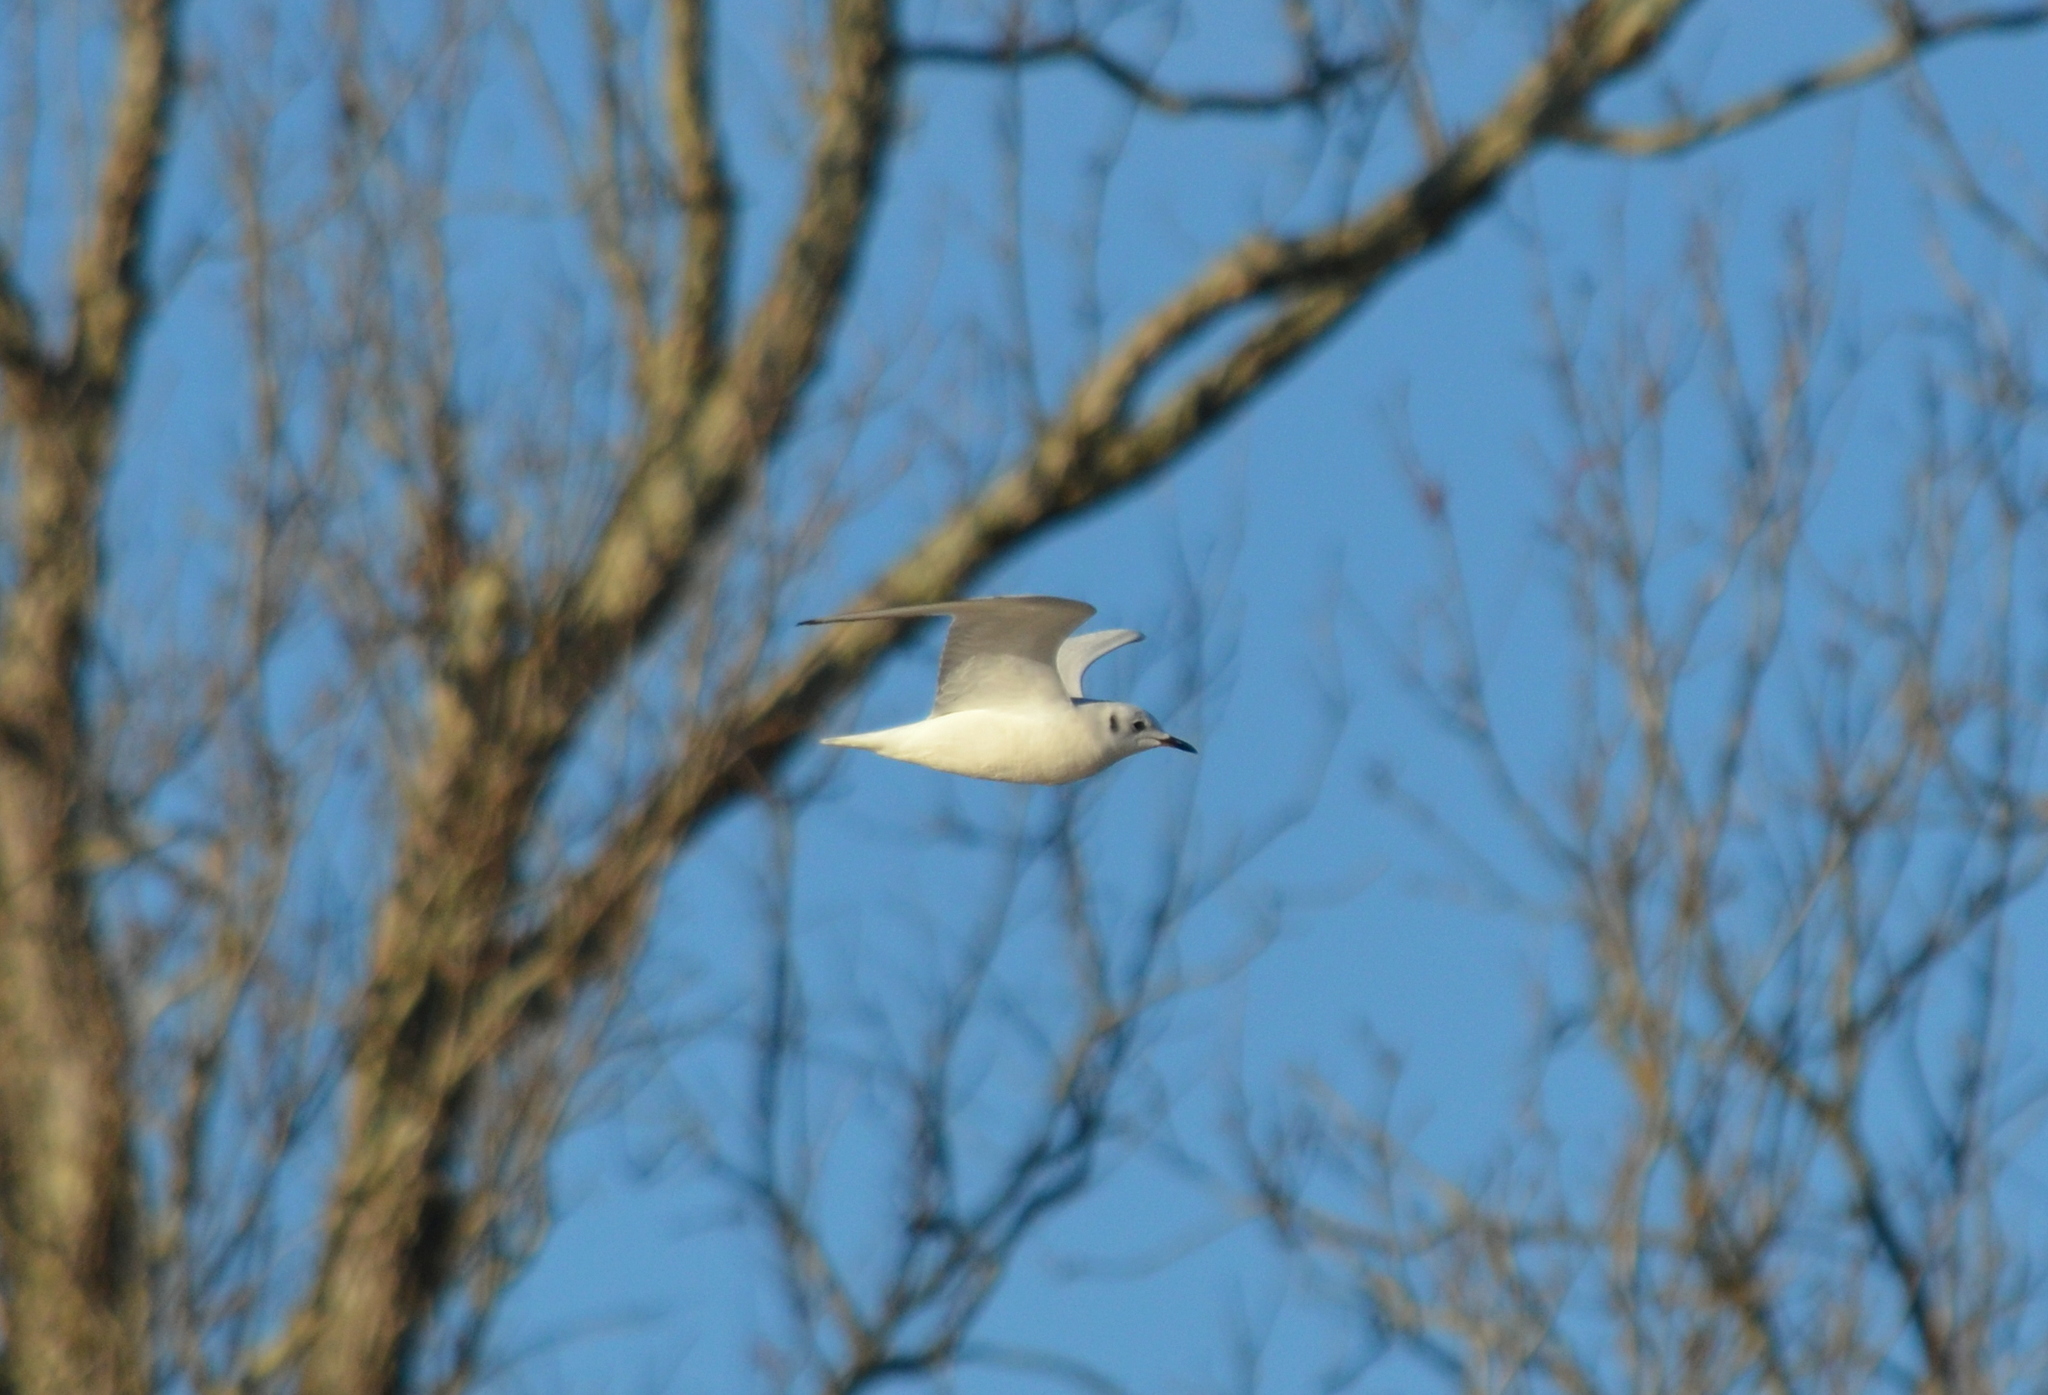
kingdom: Animalia
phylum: Chordata
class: Aves
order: Charadriiformes
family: Laridae
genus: Chroicocephalus
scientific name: Chroicocephalus philadelphia
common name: Bonaparte's gull
